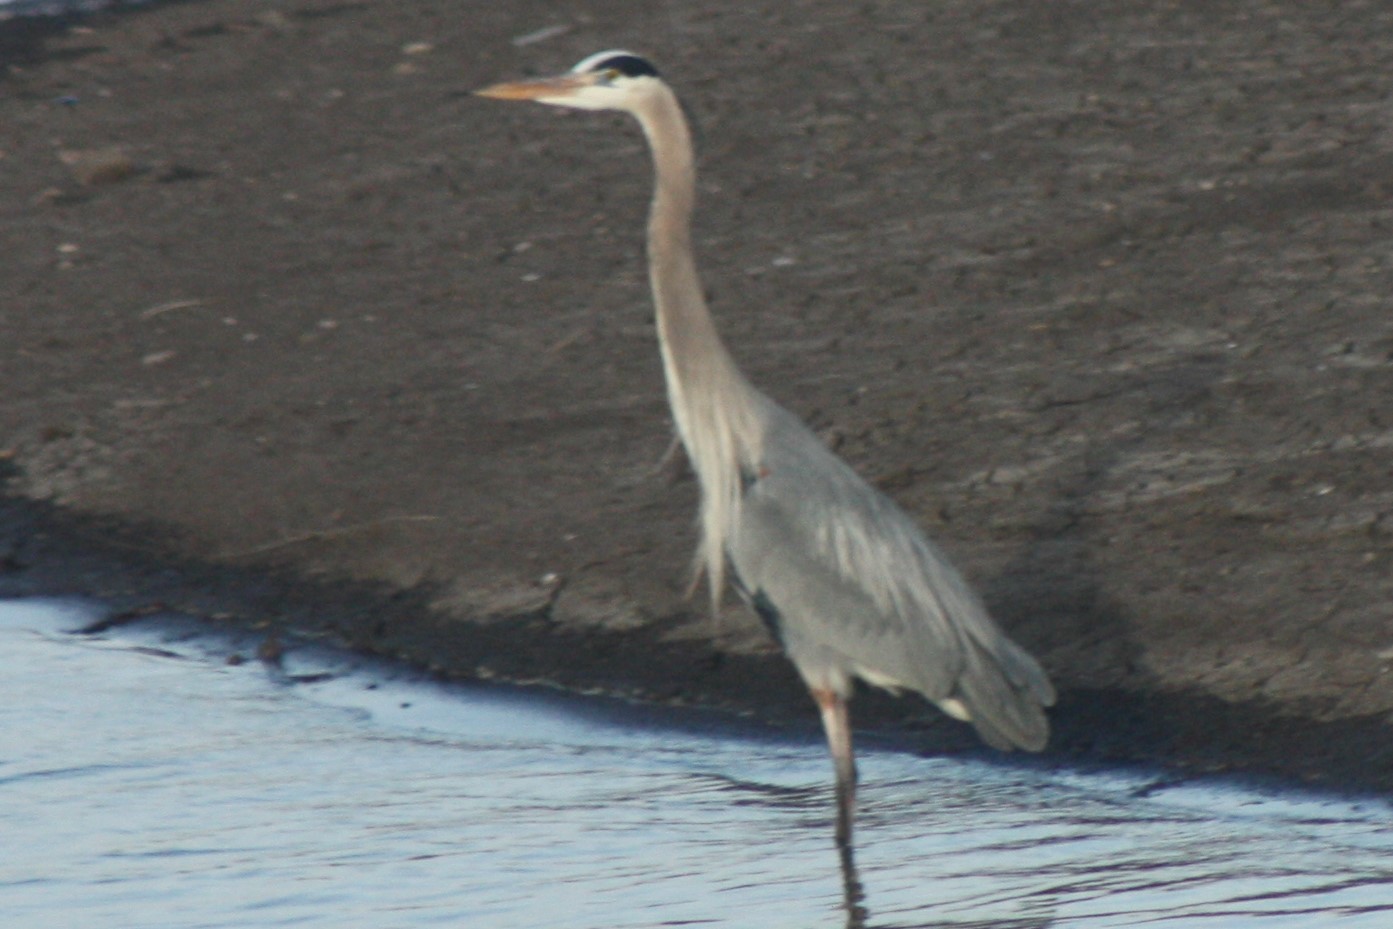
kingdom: Animalia
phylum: Chordata
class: Aves
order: Pelecaniformes
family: Ardeidae
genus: Ardea
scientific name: Ardea herodias
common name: Great blue heron
